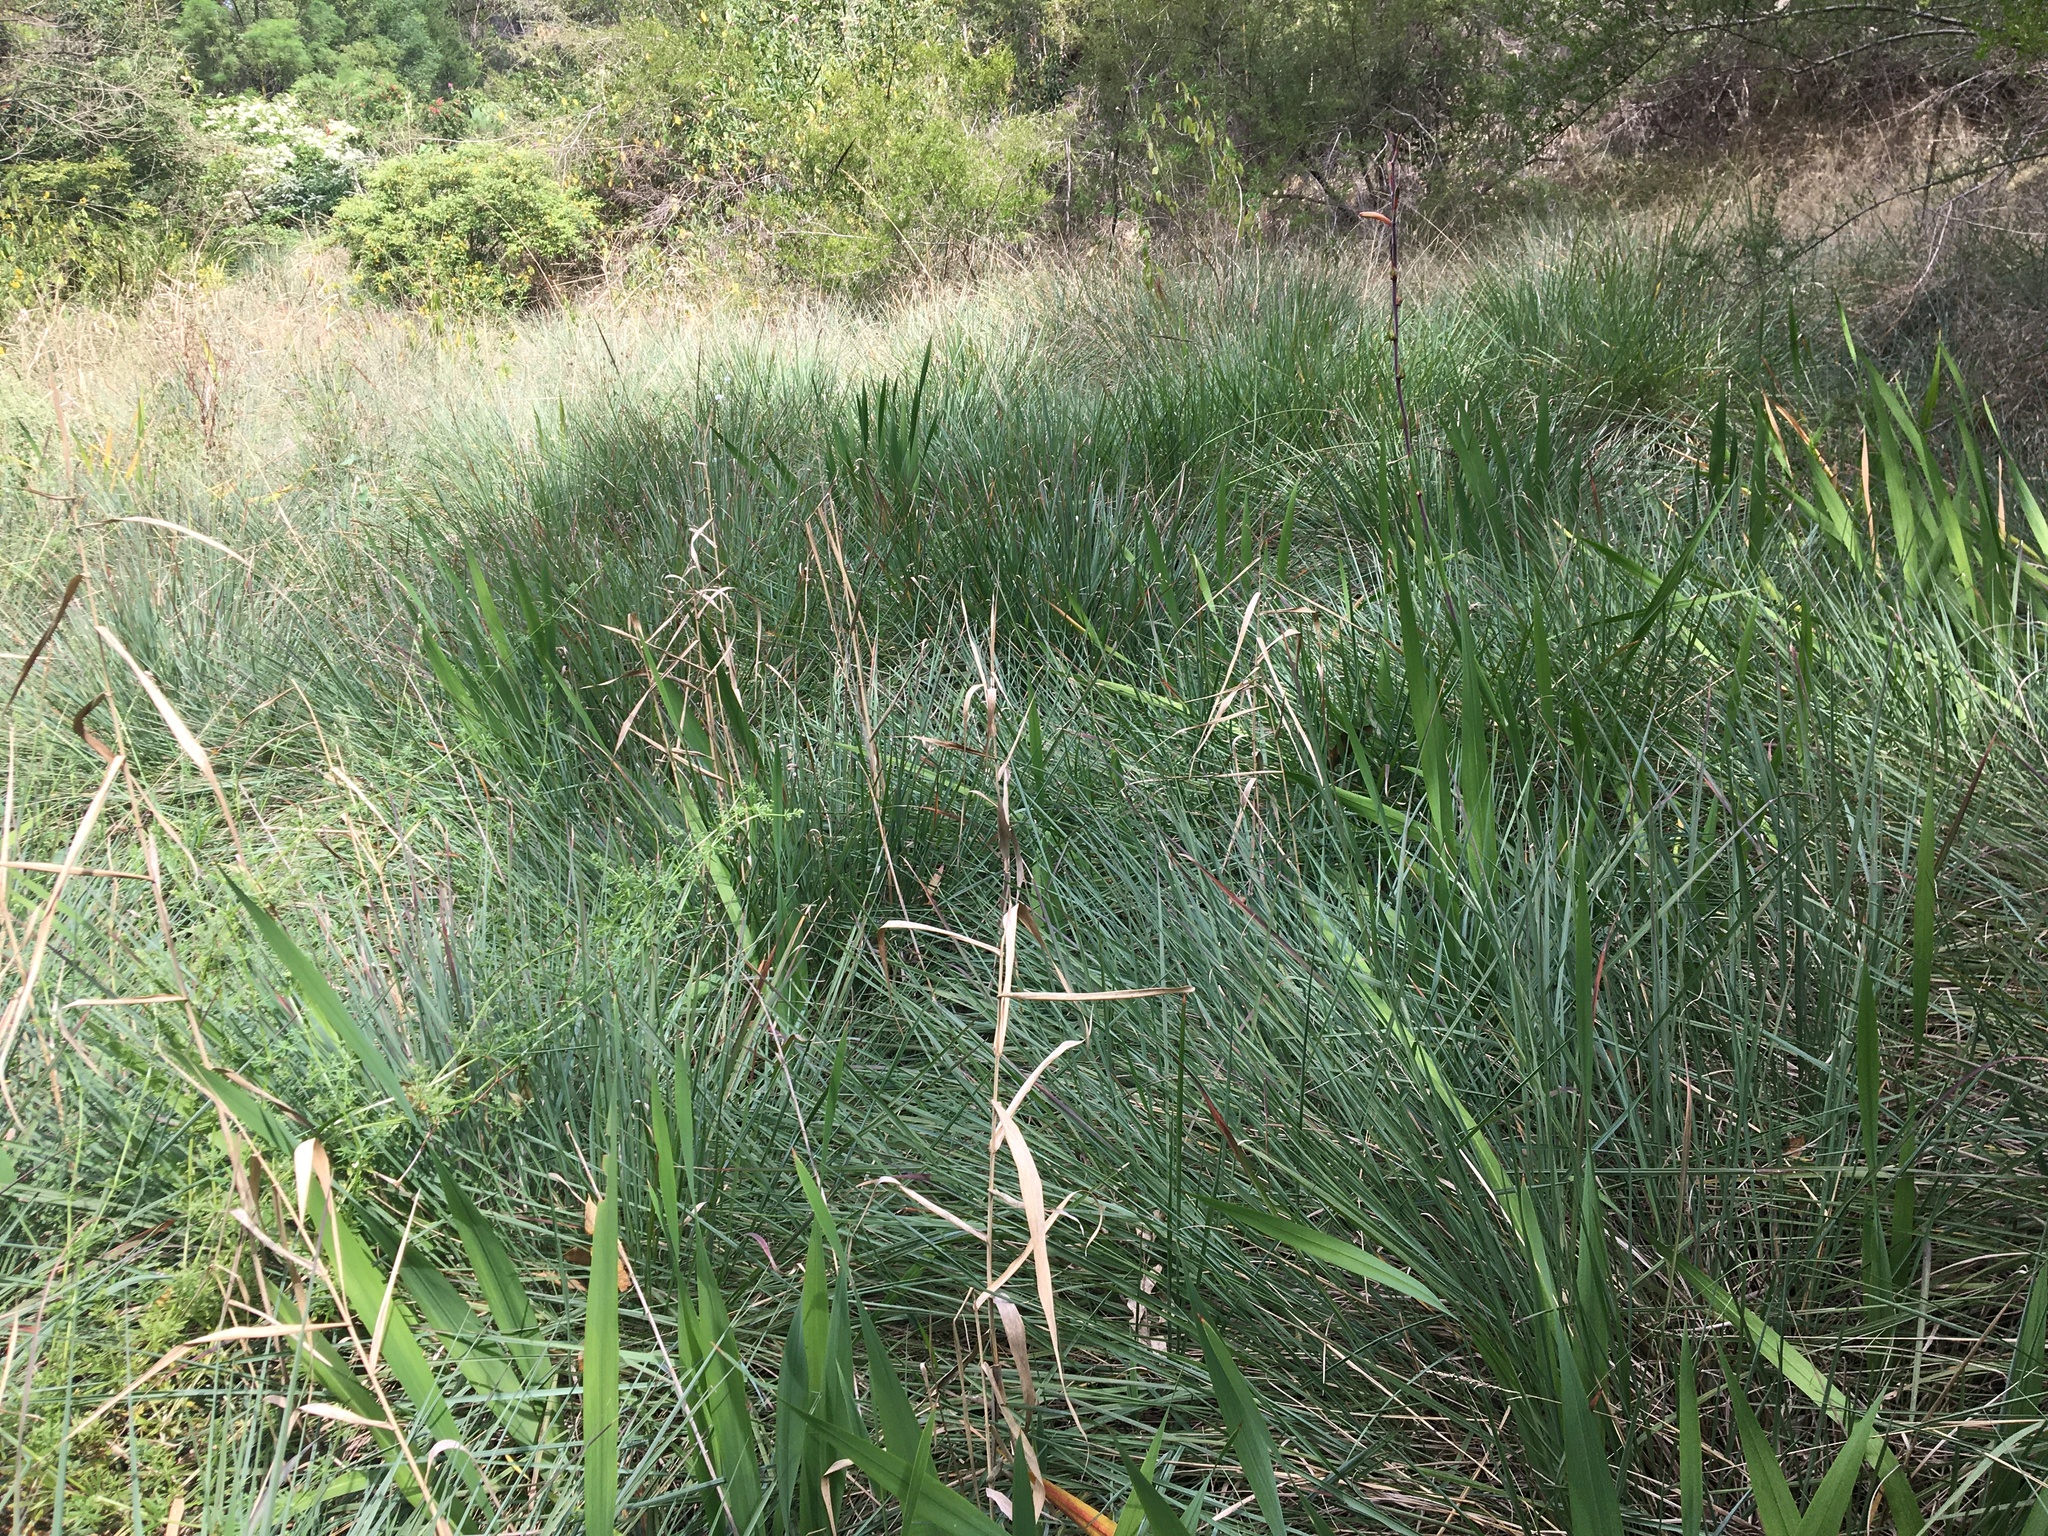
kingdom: Plantae
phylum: Tracheophyta
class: Liliopsida
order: Poales
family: Poaceae
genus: Paspalum
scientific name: Paspalum quadrifarium
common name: Tussock paspalum
